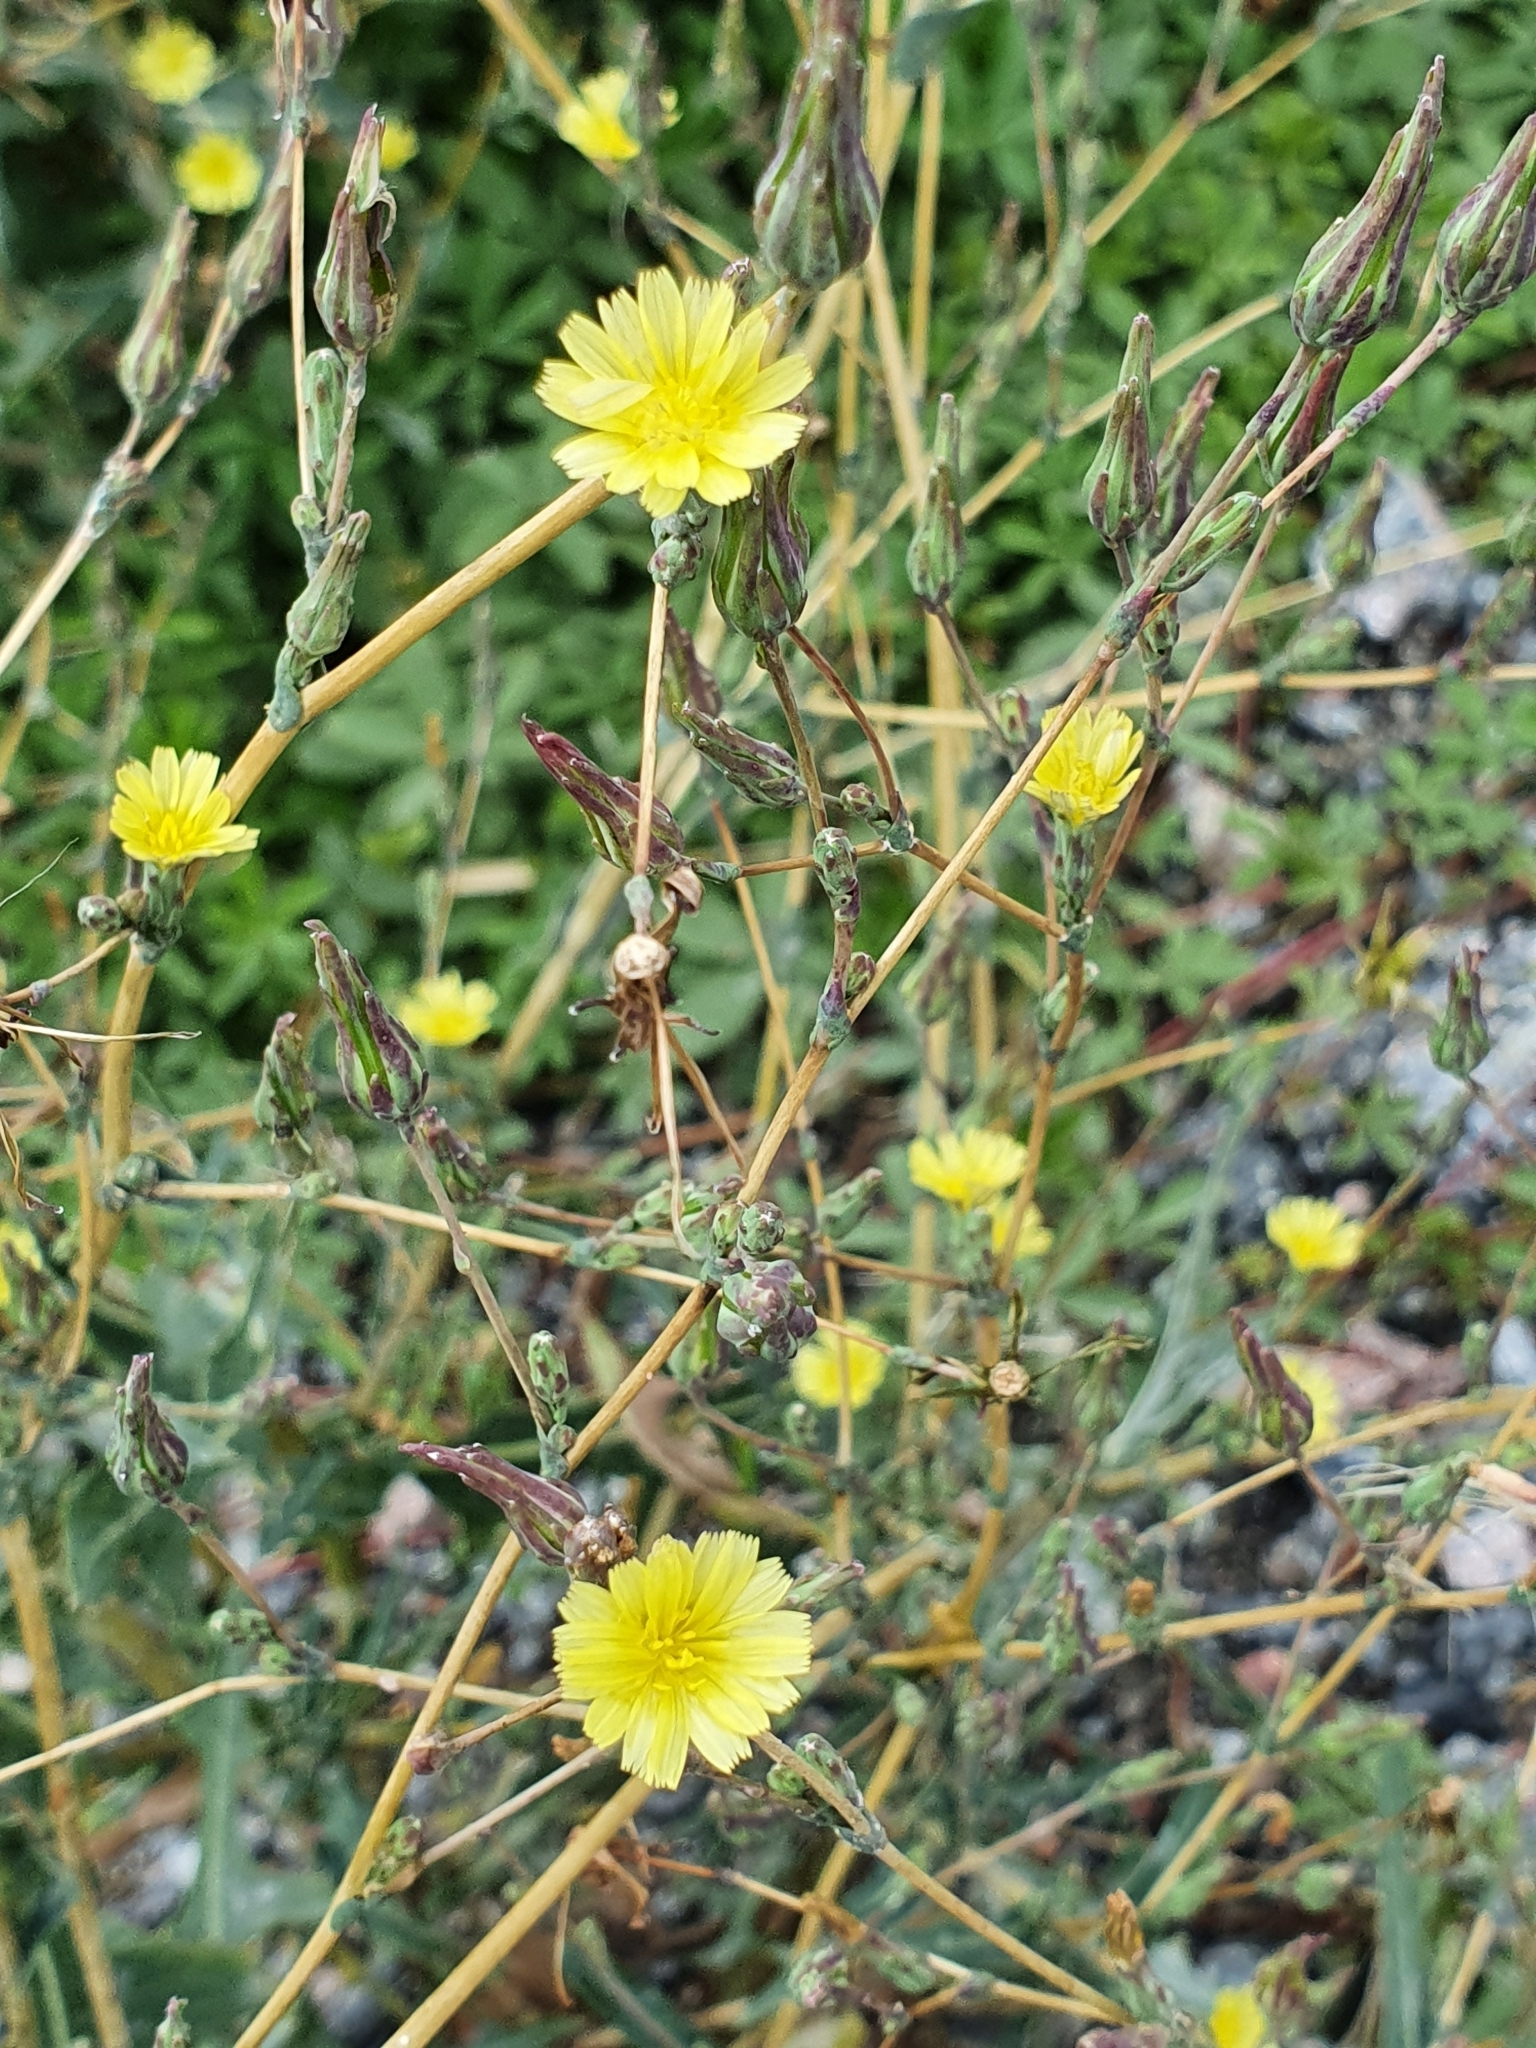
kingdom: Plantae
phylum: Tracheophyta
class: Magnoliopsida
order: Asterales
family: Asteraceae
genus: Lactuca
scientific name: Lactuca serriola
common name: Prickly lettuce
